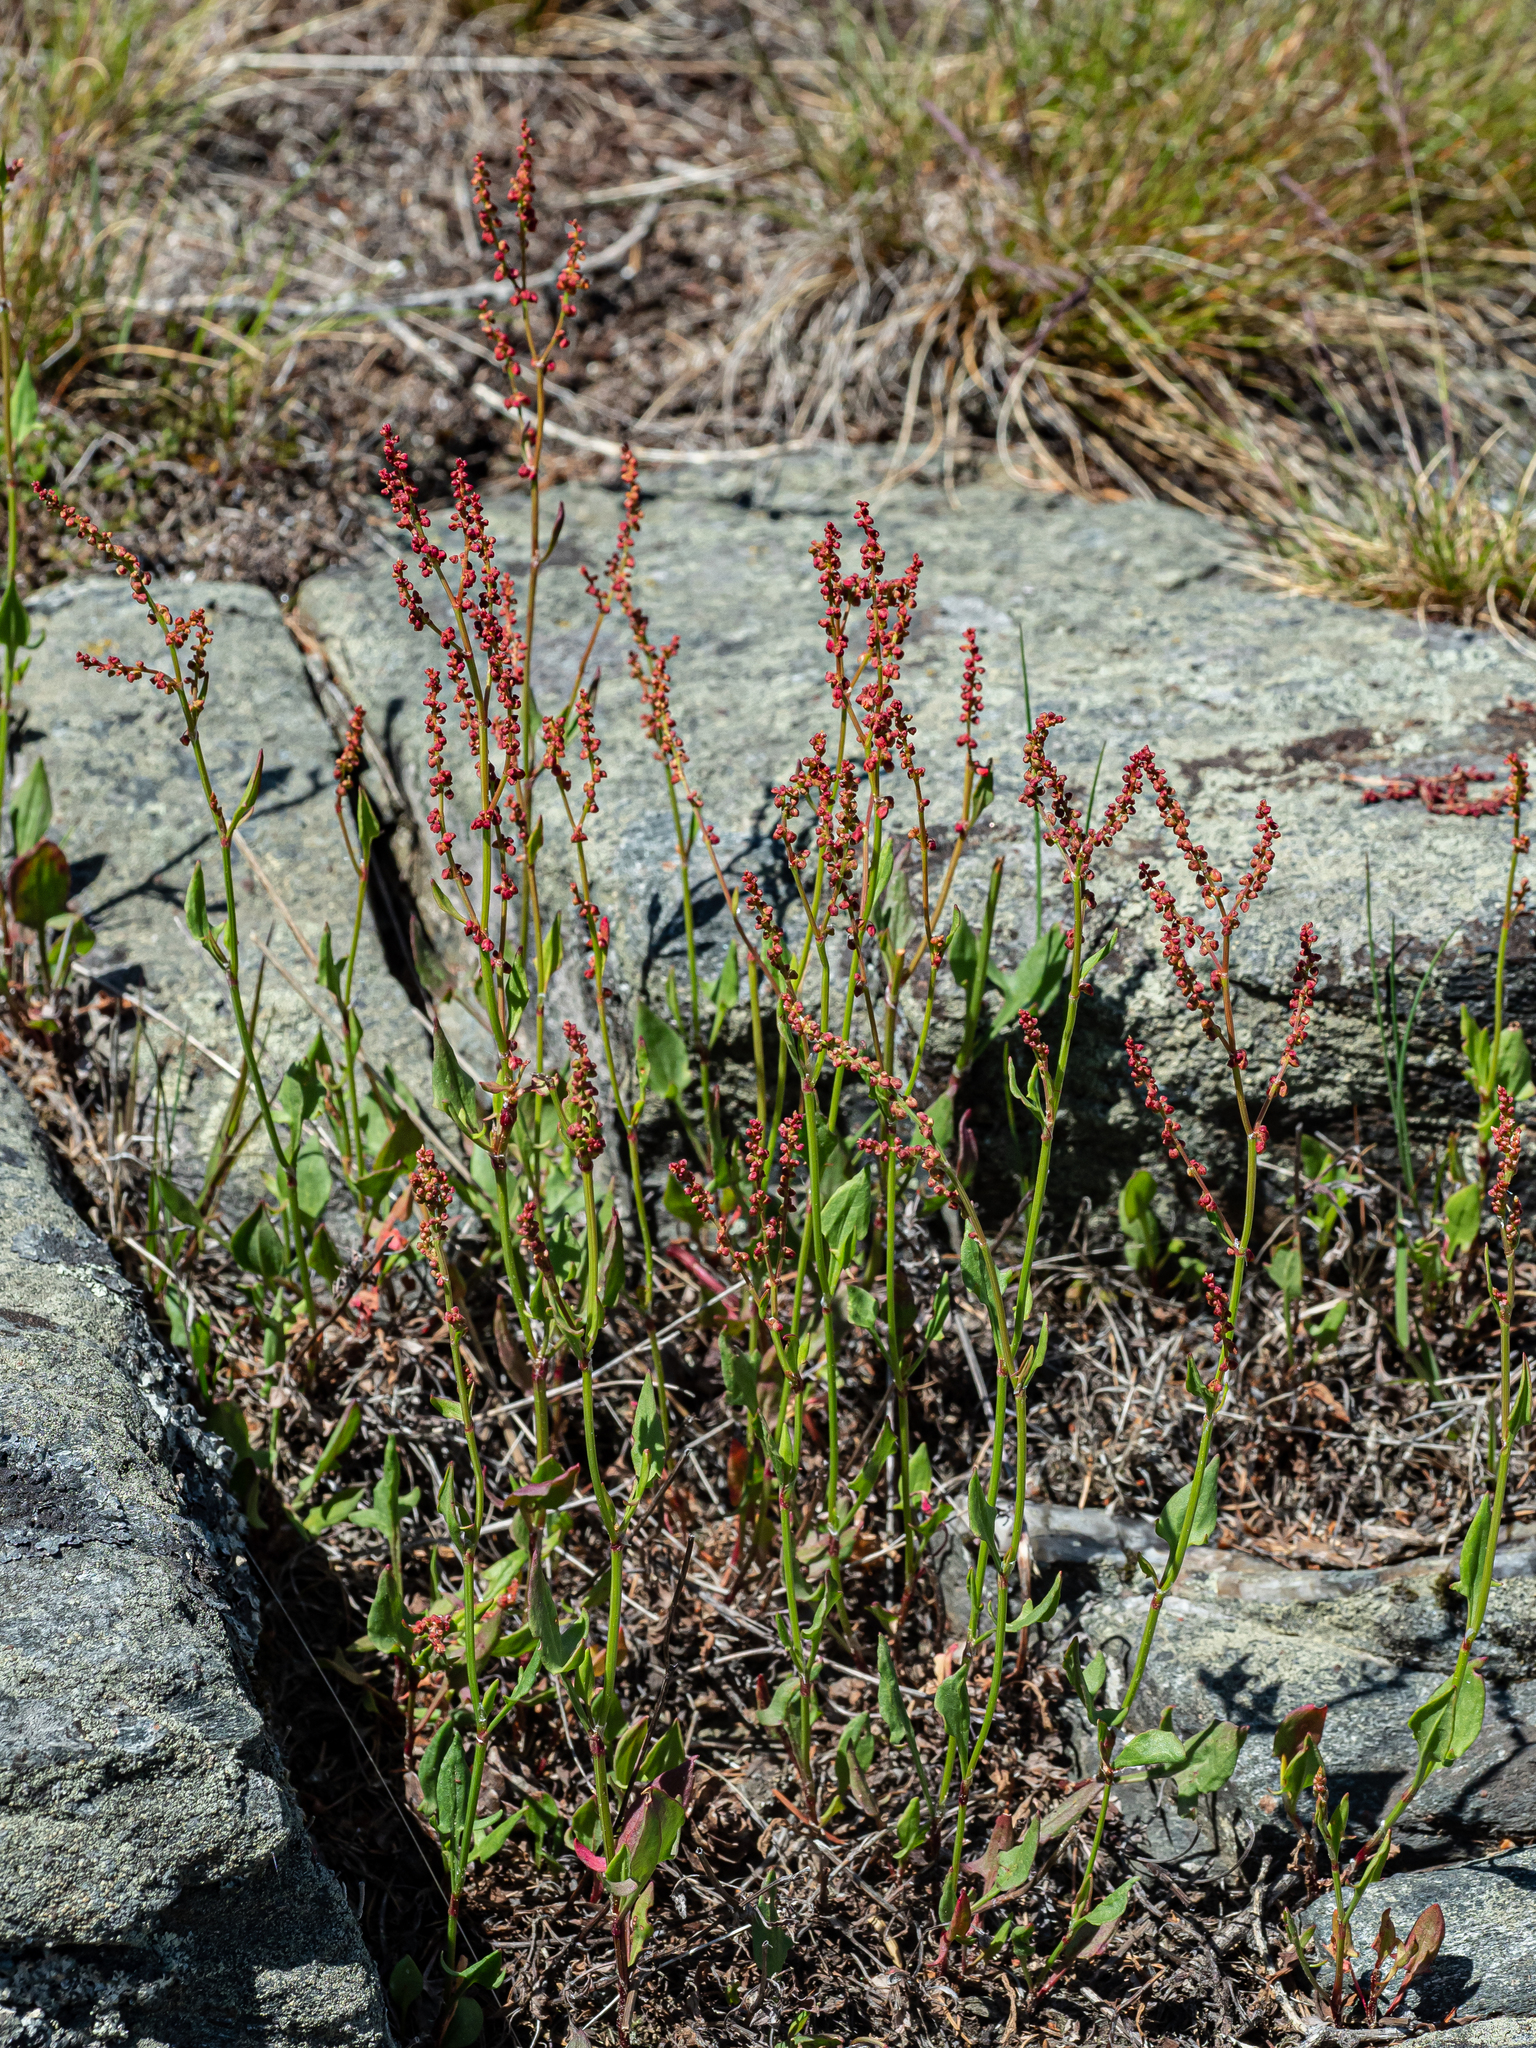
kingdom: Plantae
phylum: Tracheophyta
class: Magnoliopsida
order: Caryophyllales
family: Polygonaceae
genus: Rumex
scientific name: Rumex acetosella
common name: Common sheep sorrel
